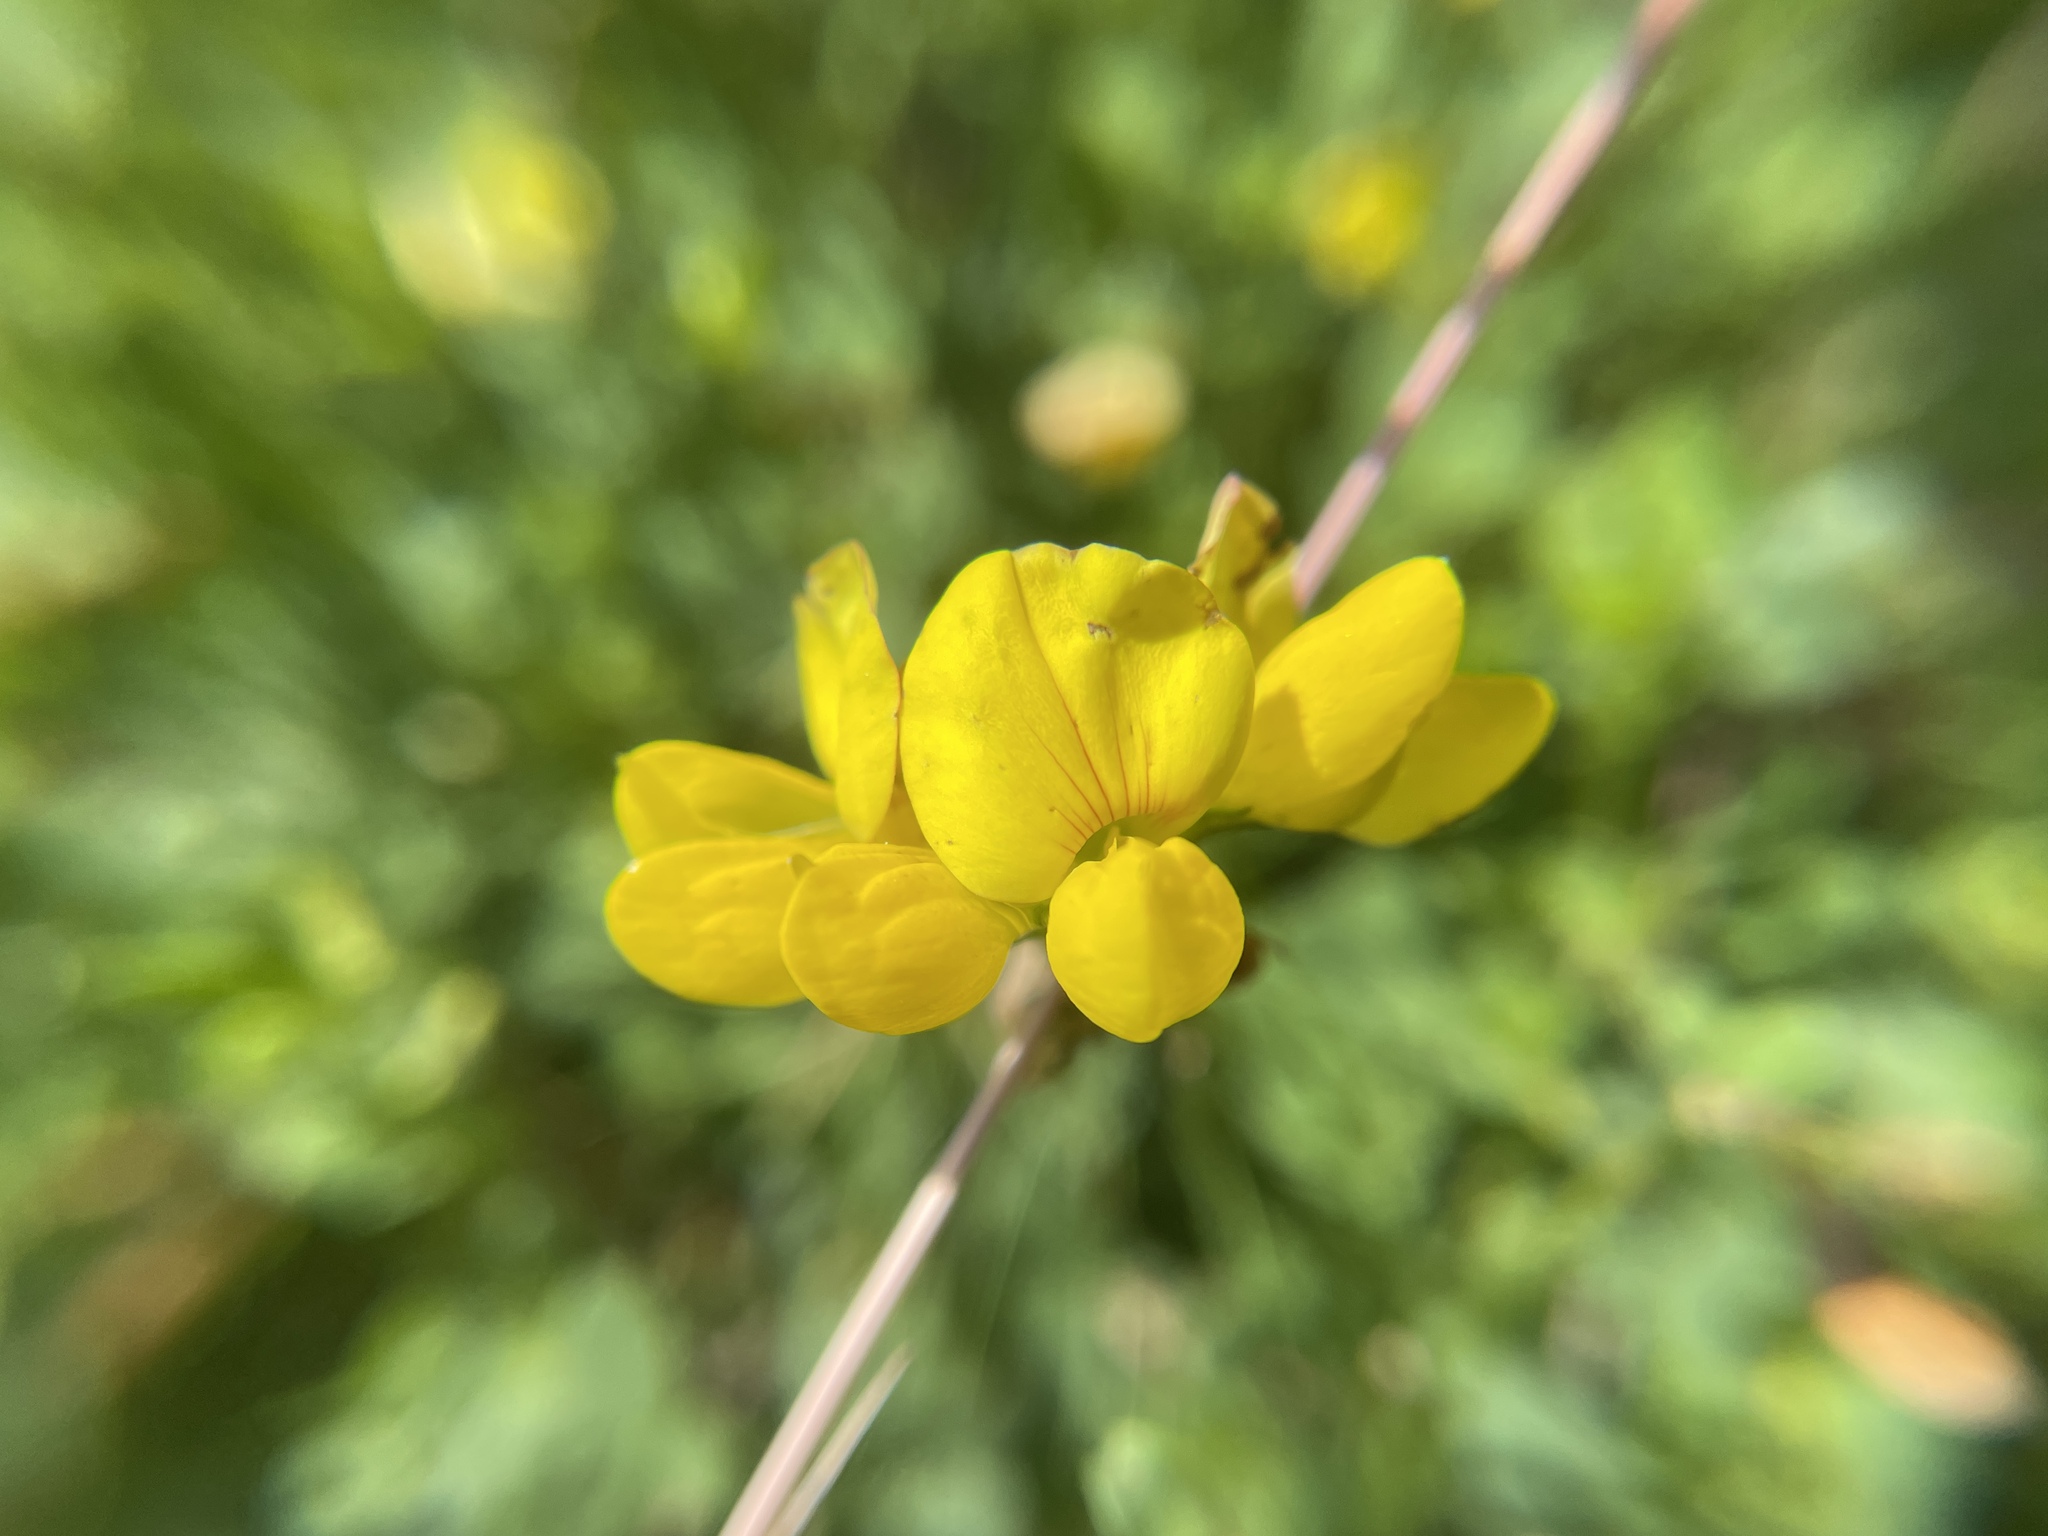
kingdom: Plantae
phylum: Tracheophyta
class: Magnoliopsida
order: Fabales
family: Fabaceae
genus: Lotus
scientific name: Lotus corniculatus
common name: Common bird's-foot-trefoil
